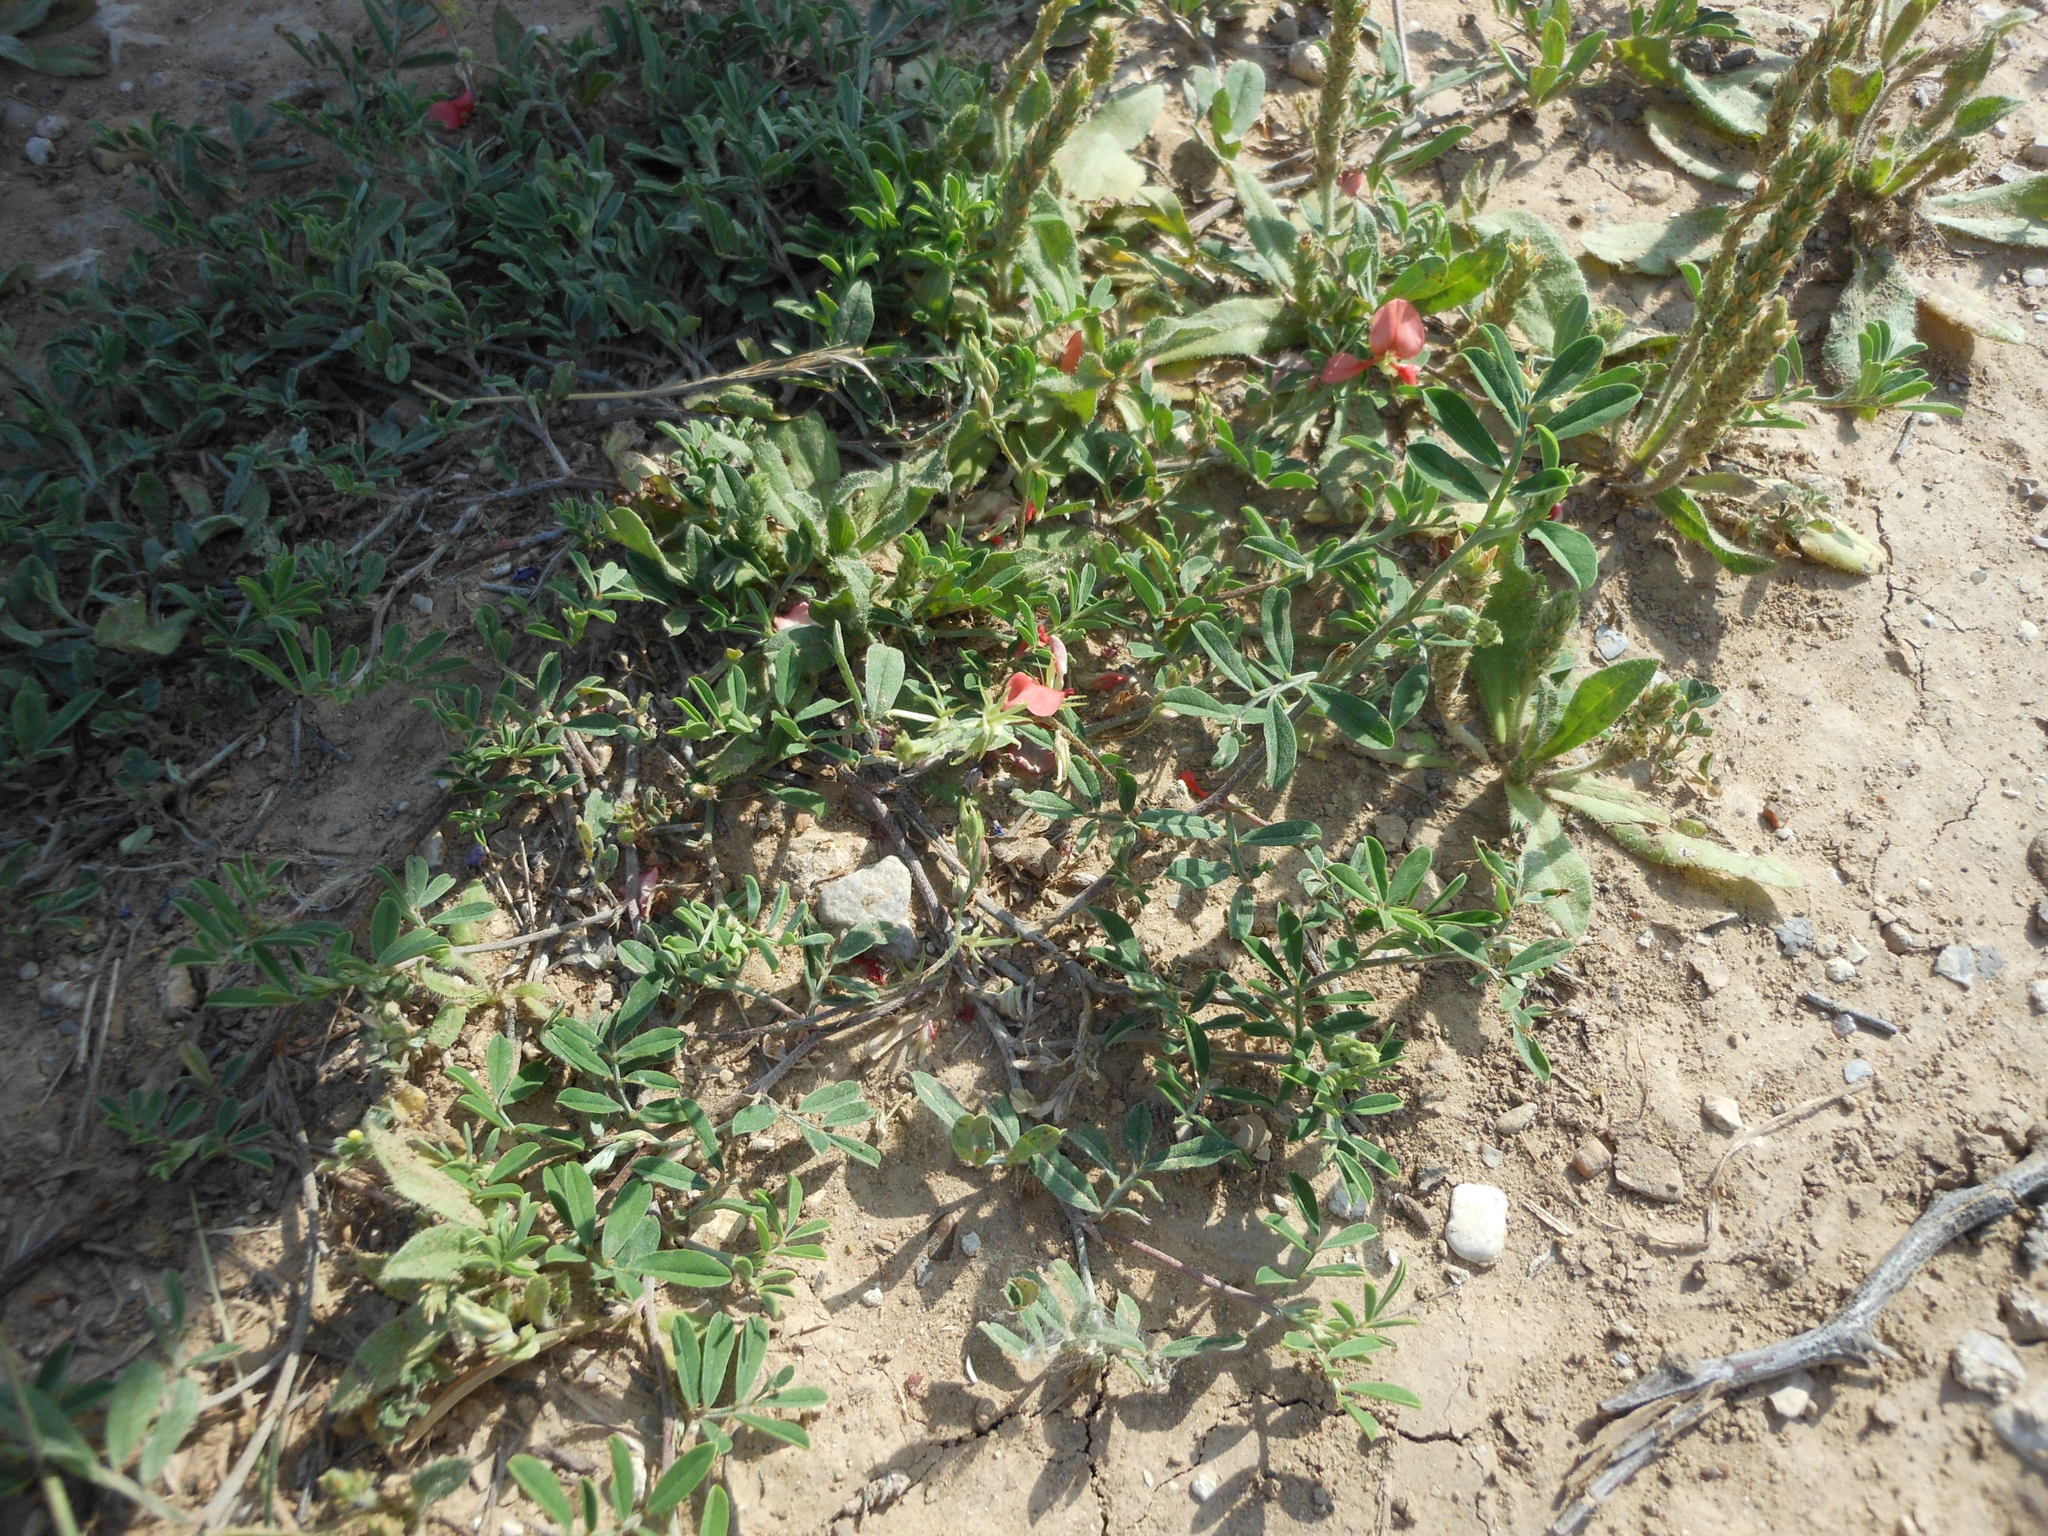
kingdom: Plantae
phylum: Tracheophyta
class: Magnoliopsida
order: Fabales
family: Fabaceae
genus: Indigofera
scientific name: Indigofera miniata
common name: Coast indigo
